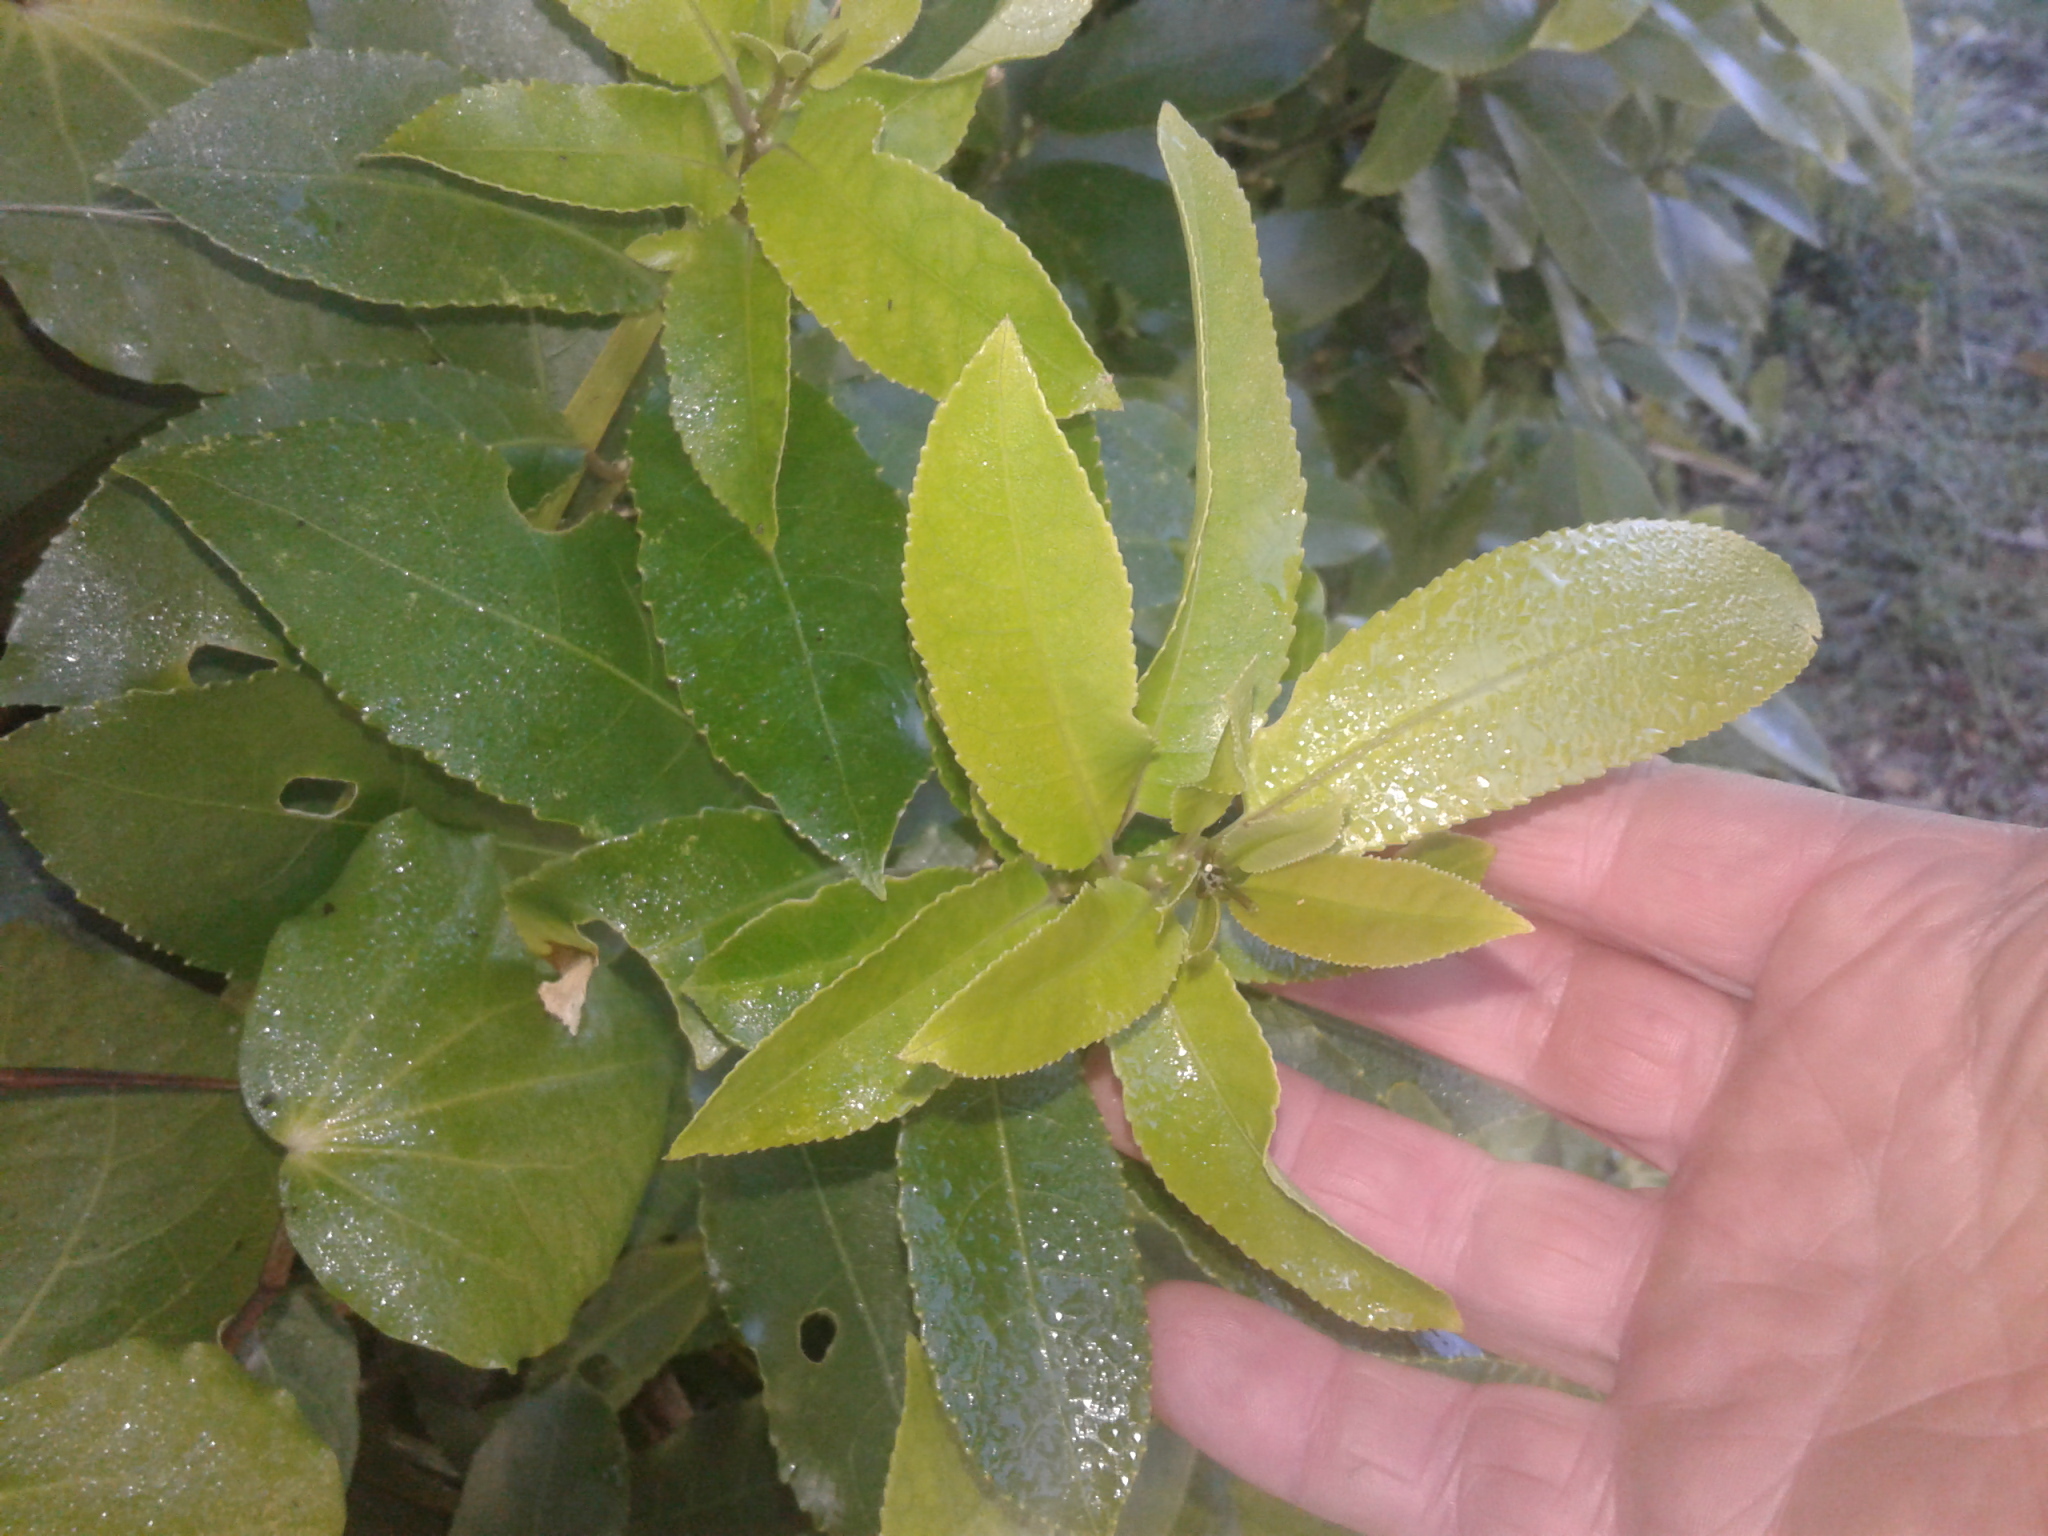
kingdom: Plantae
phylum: Tracheophyta
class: Magnoliopsida
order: Malpighiales
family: Violaceae
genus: Melicytus
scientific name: Melicytus ramiflorus
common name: Mahoe
